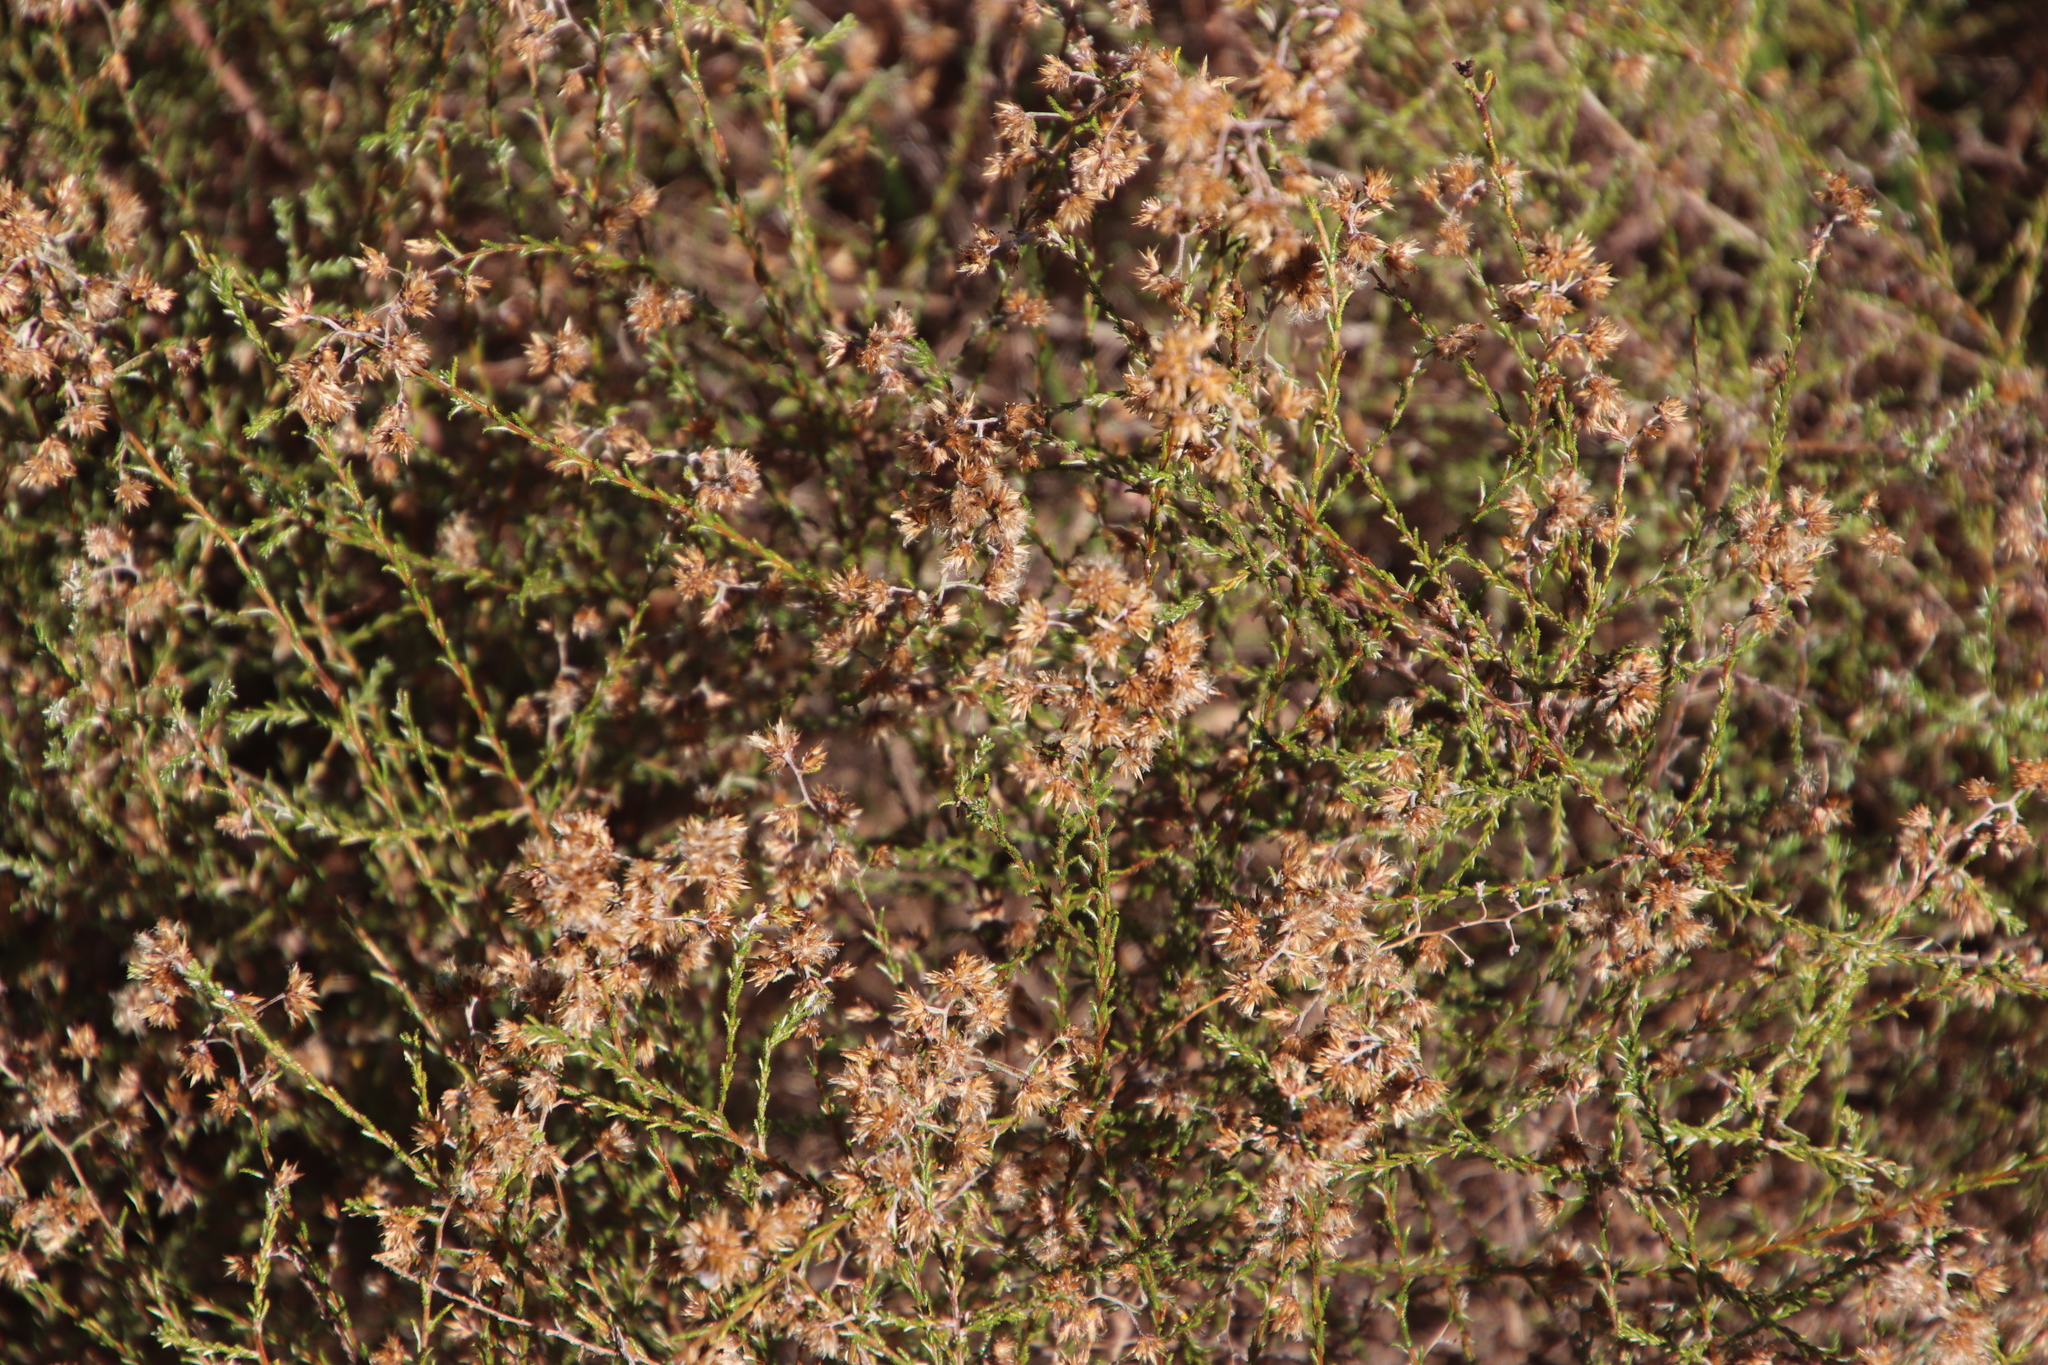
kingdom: Plantae
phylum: Tracheophyta
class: Magnoliopsida
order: Asterales
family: Asteraceae
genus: Myrovernix
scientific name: Myrovernix scaber
